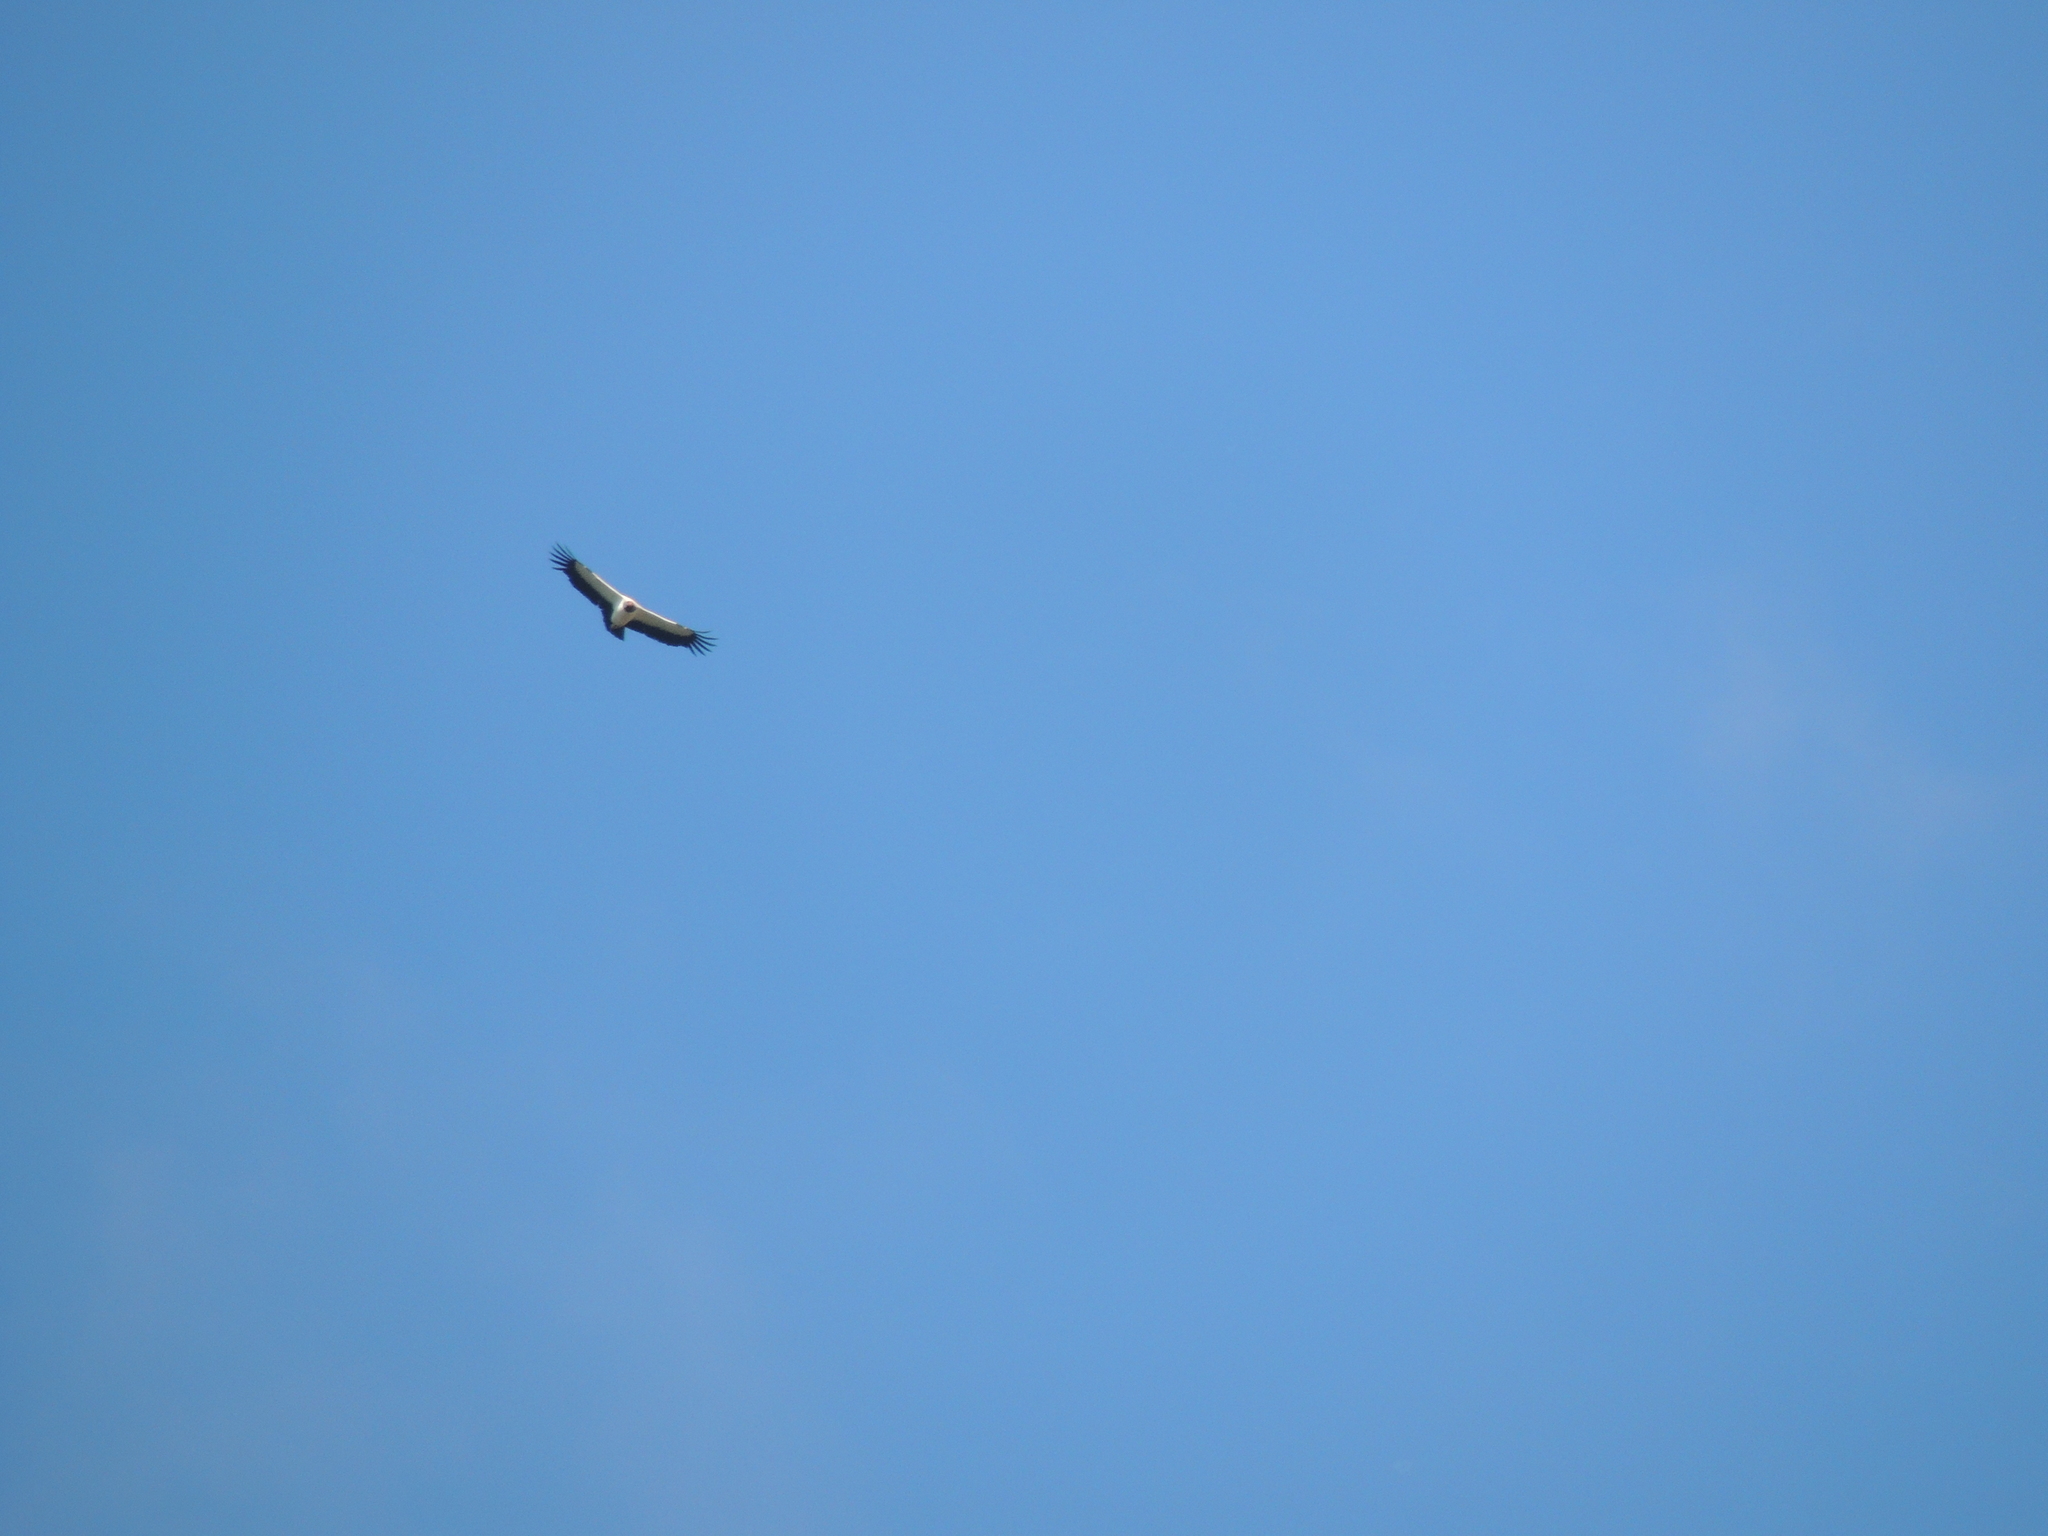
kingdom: Animalia
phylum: Chordata
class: Aves
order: Accipitriformes
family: Cathartidae
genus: Sarcoramphus
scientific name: Sarcoramphus papa
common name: King vulture
